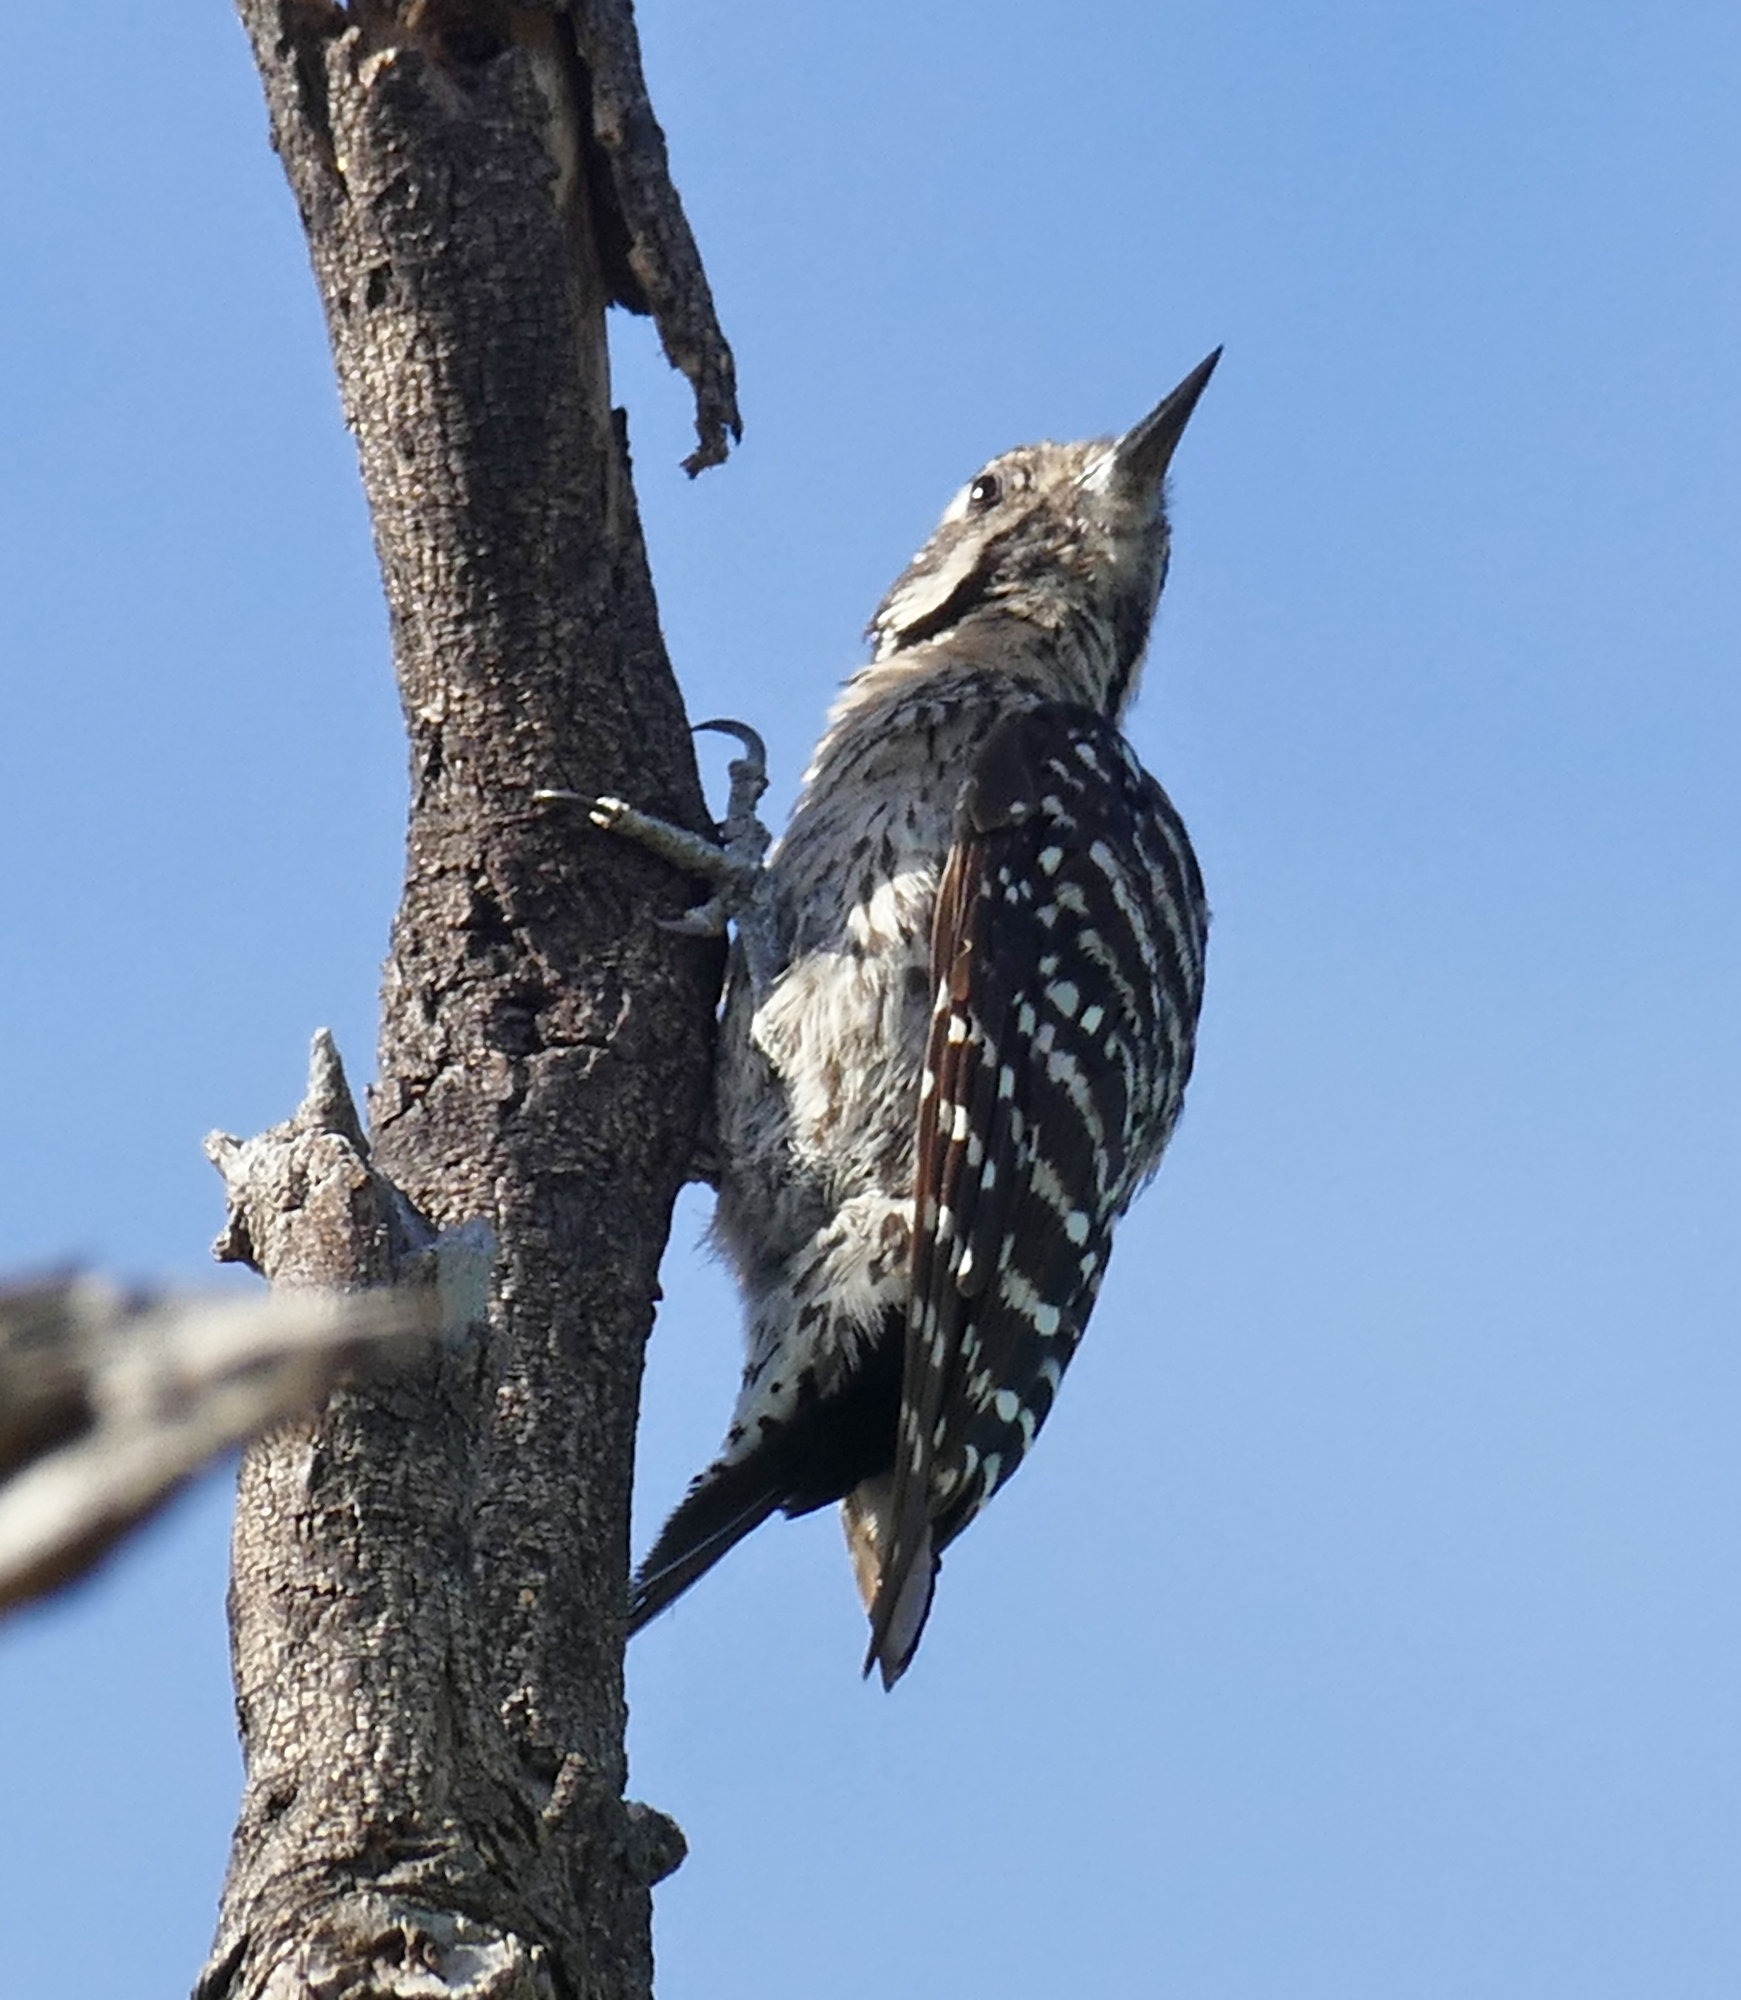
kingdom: Animalia
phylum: Chordata
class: Aves
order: Piciformes
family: Picidae
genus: Dryobates
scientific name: Dryobates scalaris
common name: Ladder-backed woodpecker
